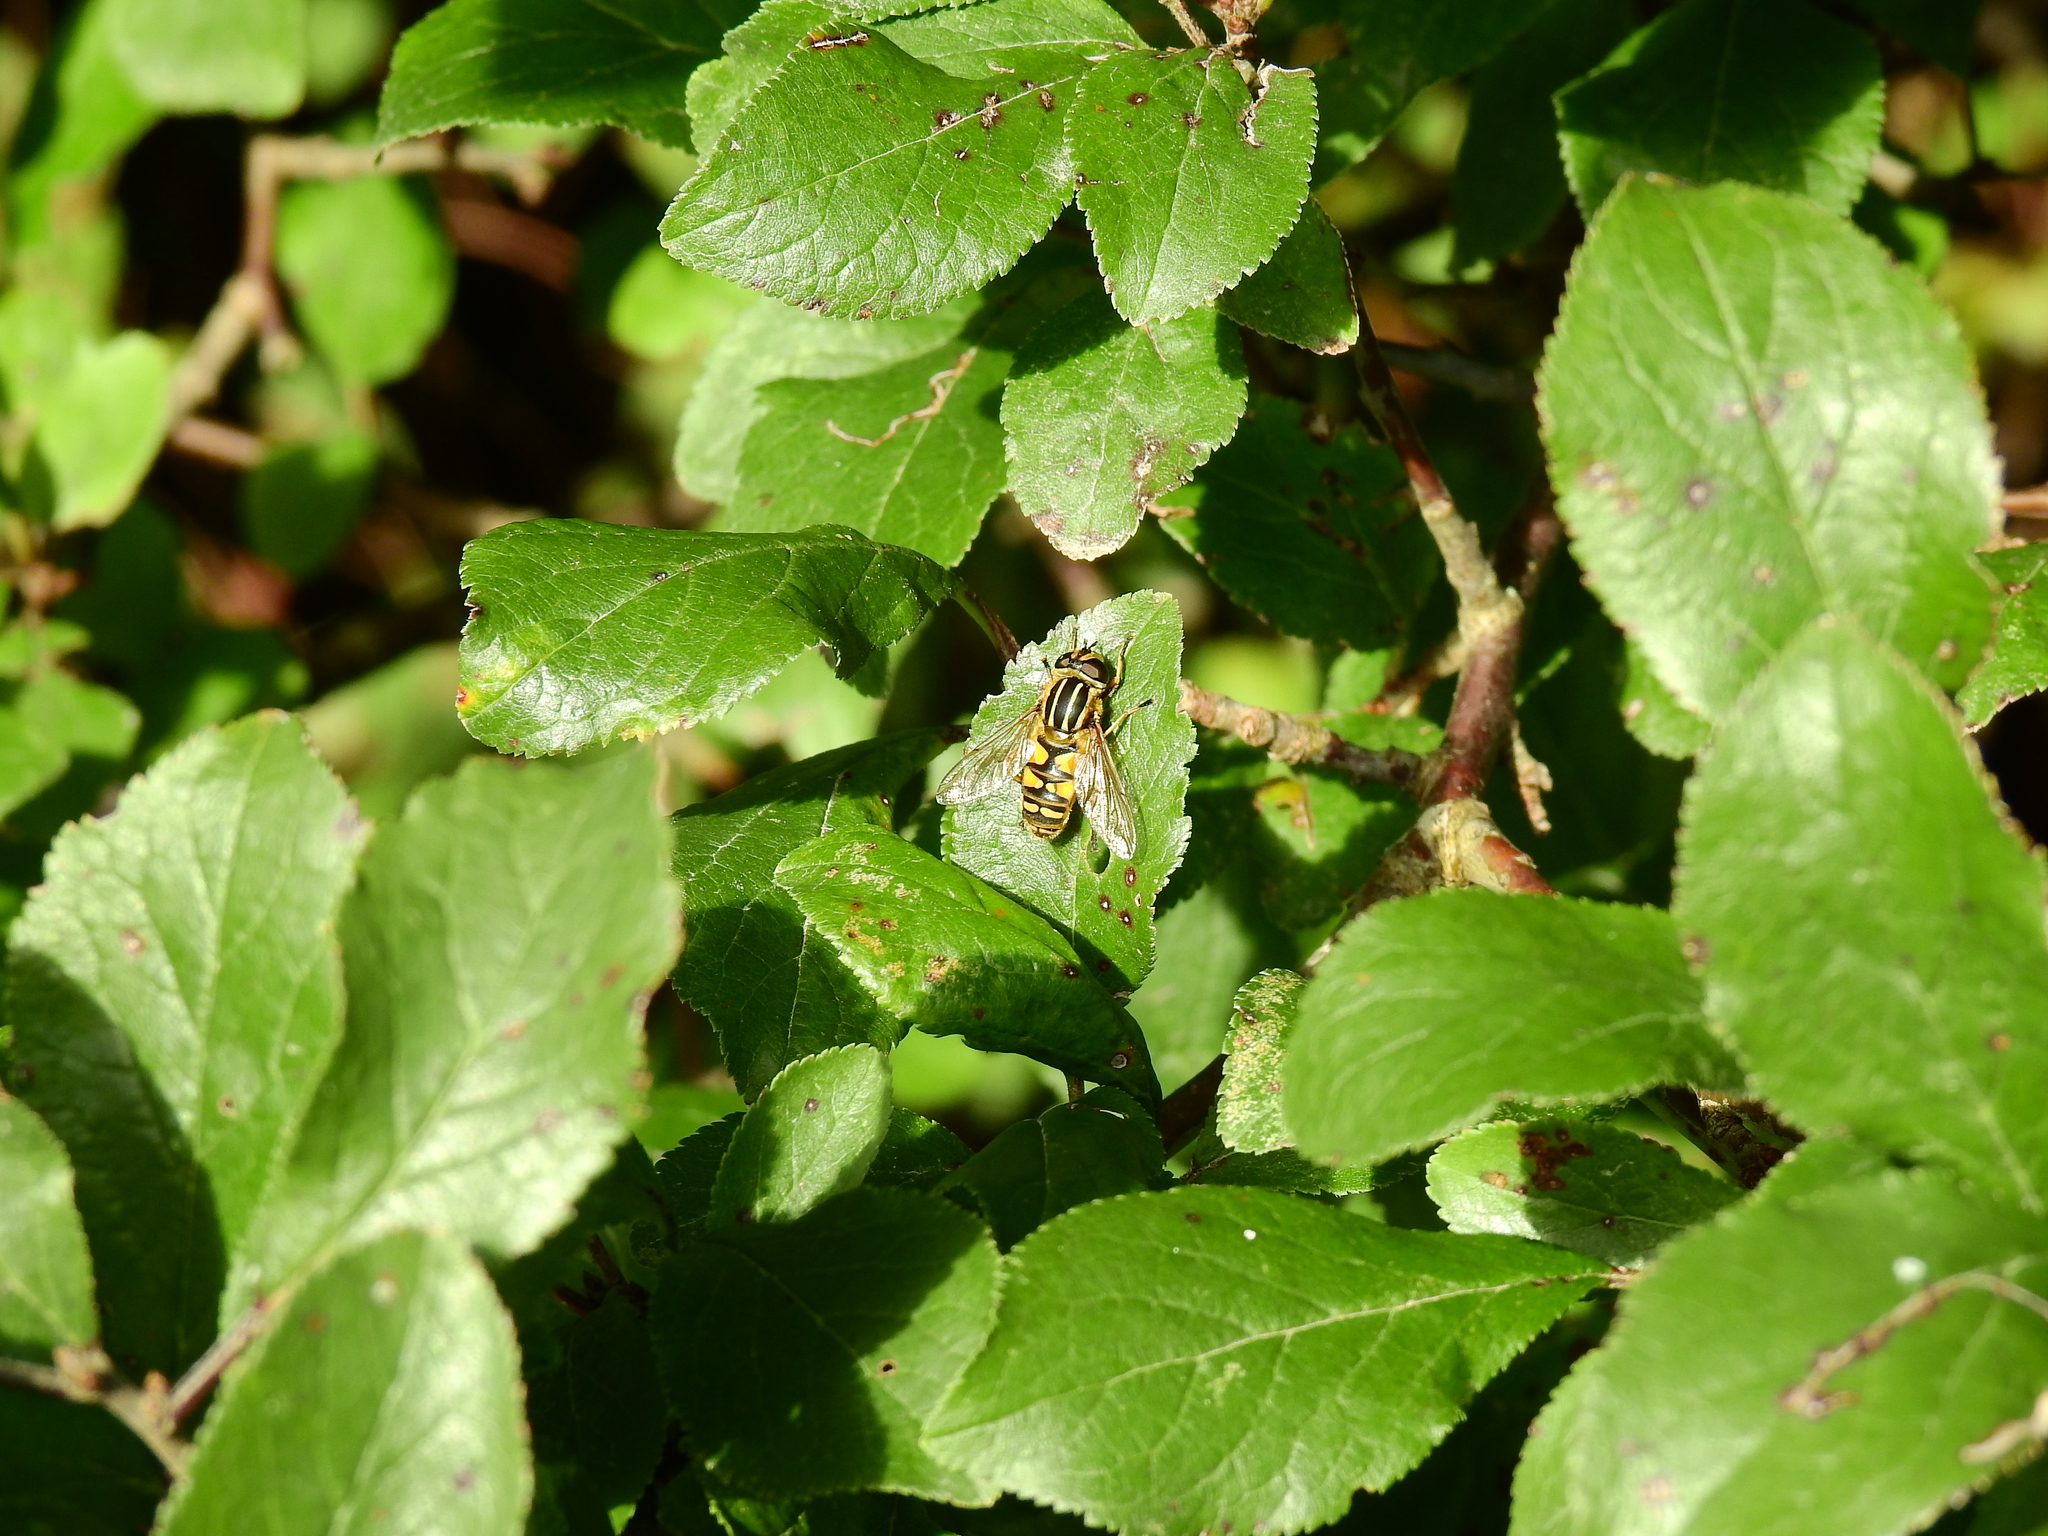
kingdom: Animalia
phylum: Arthropoda
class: Insecta
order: Diptera
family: Syrphidae
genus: Helophilus
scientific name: Helophilus pendulus
